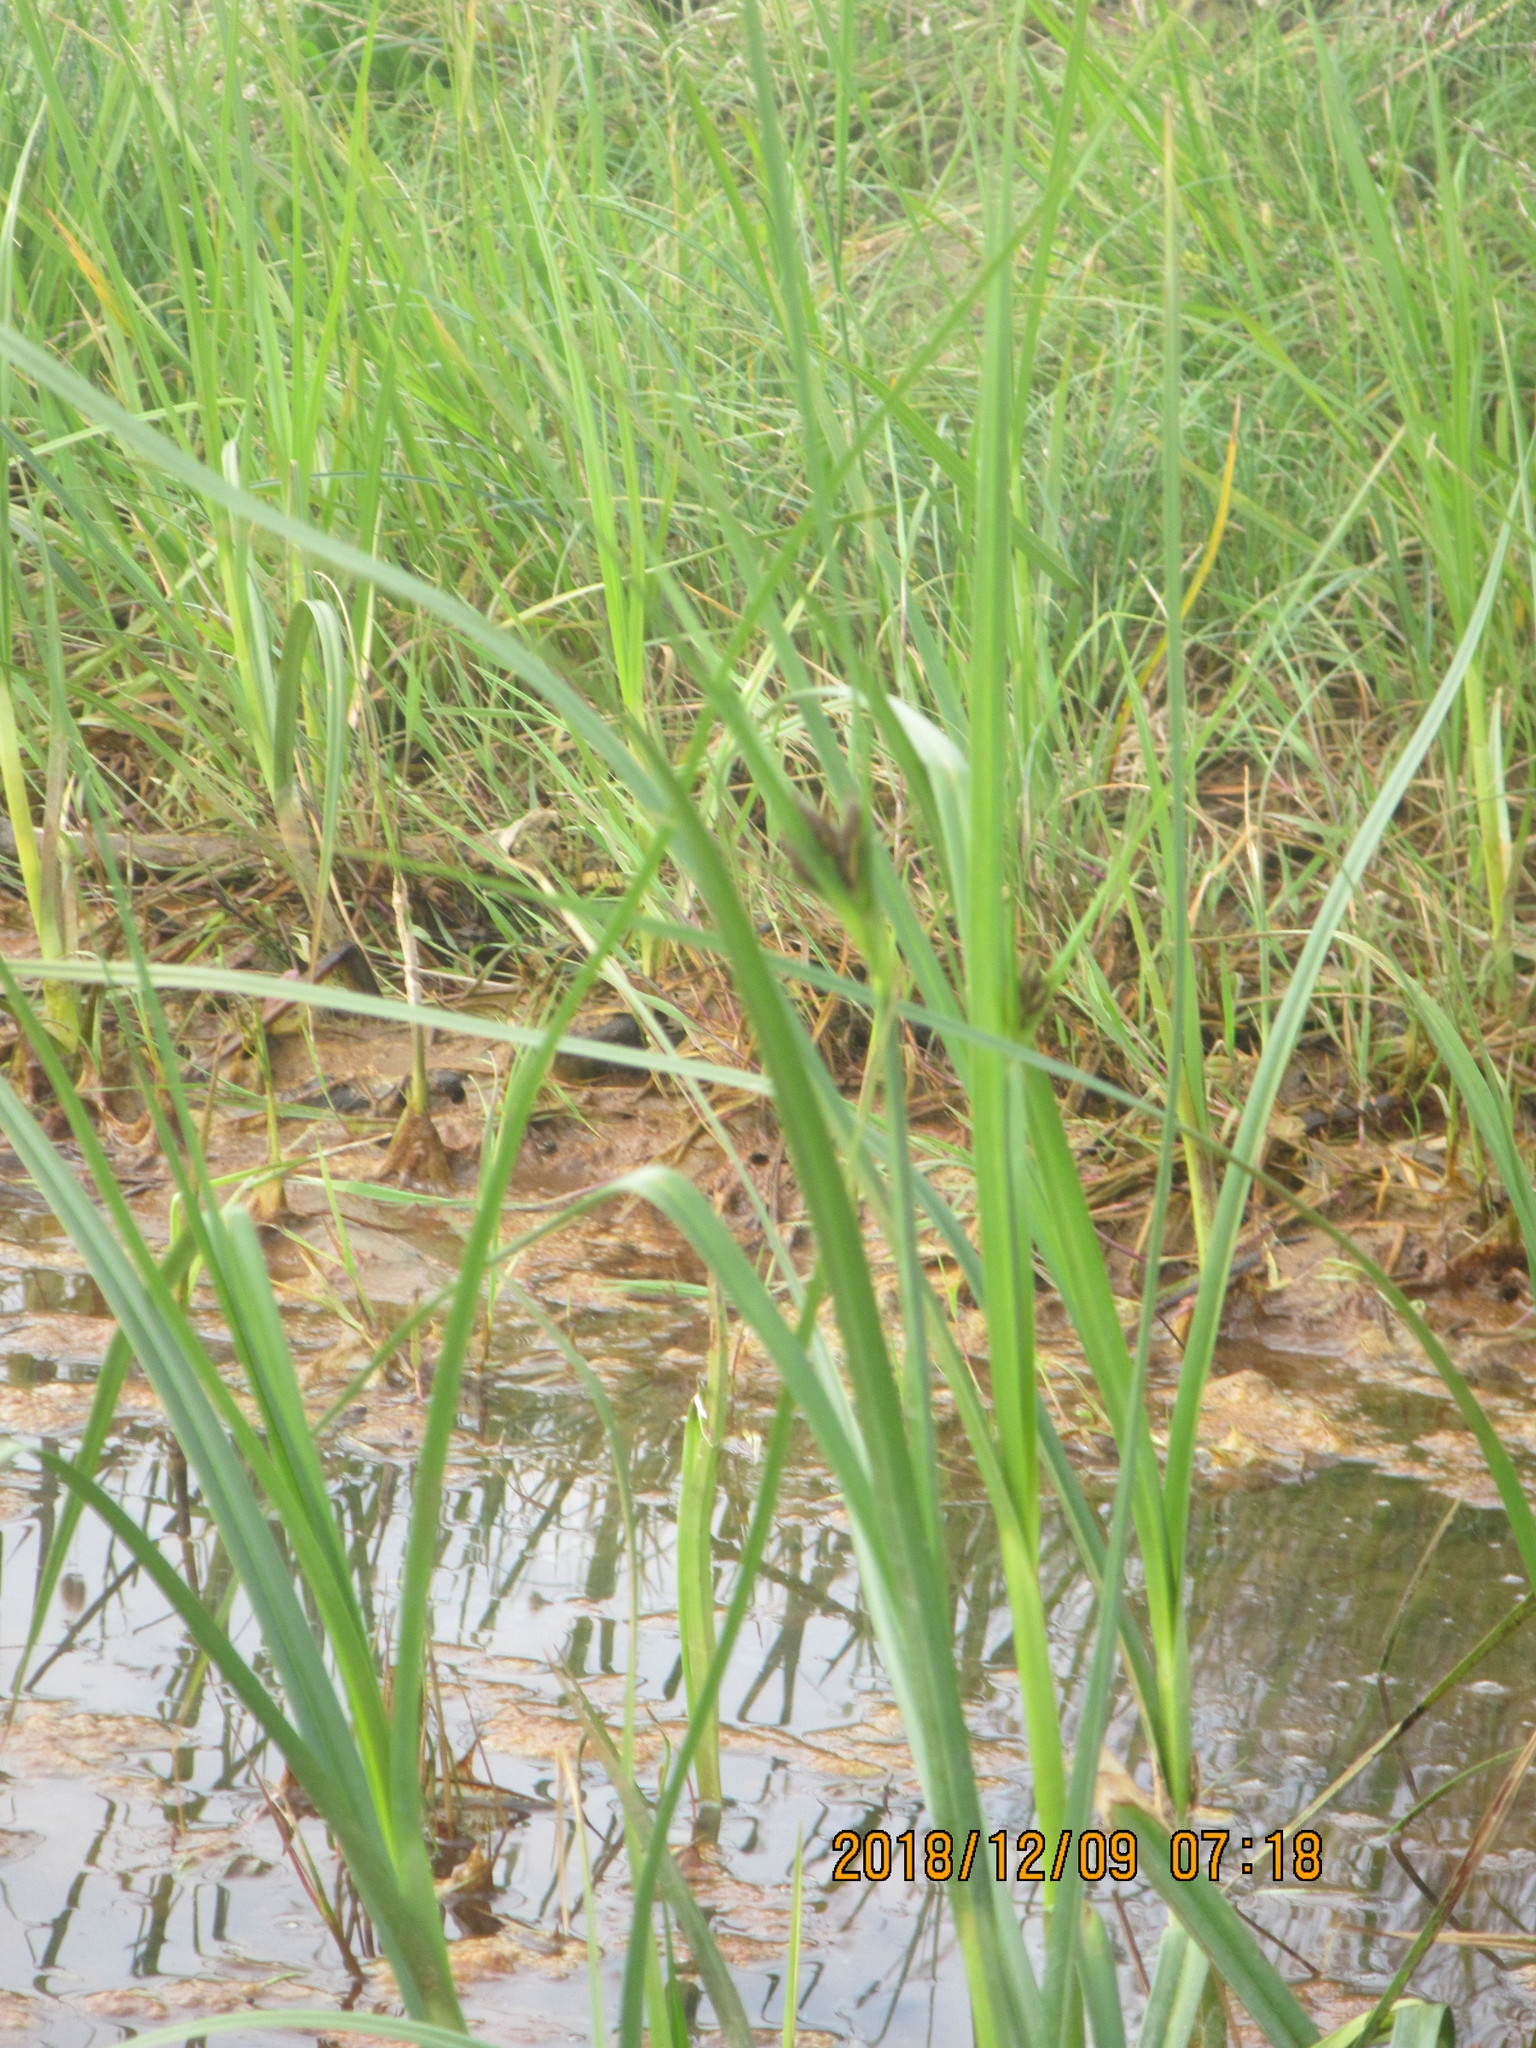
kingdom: Plantae
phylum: Tracheophyta
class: Liliopsida
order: Poales
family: Cyperaceae
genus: Bolboschoenus
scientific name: Bolboschoenus fluviatilis
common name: River bulrush
